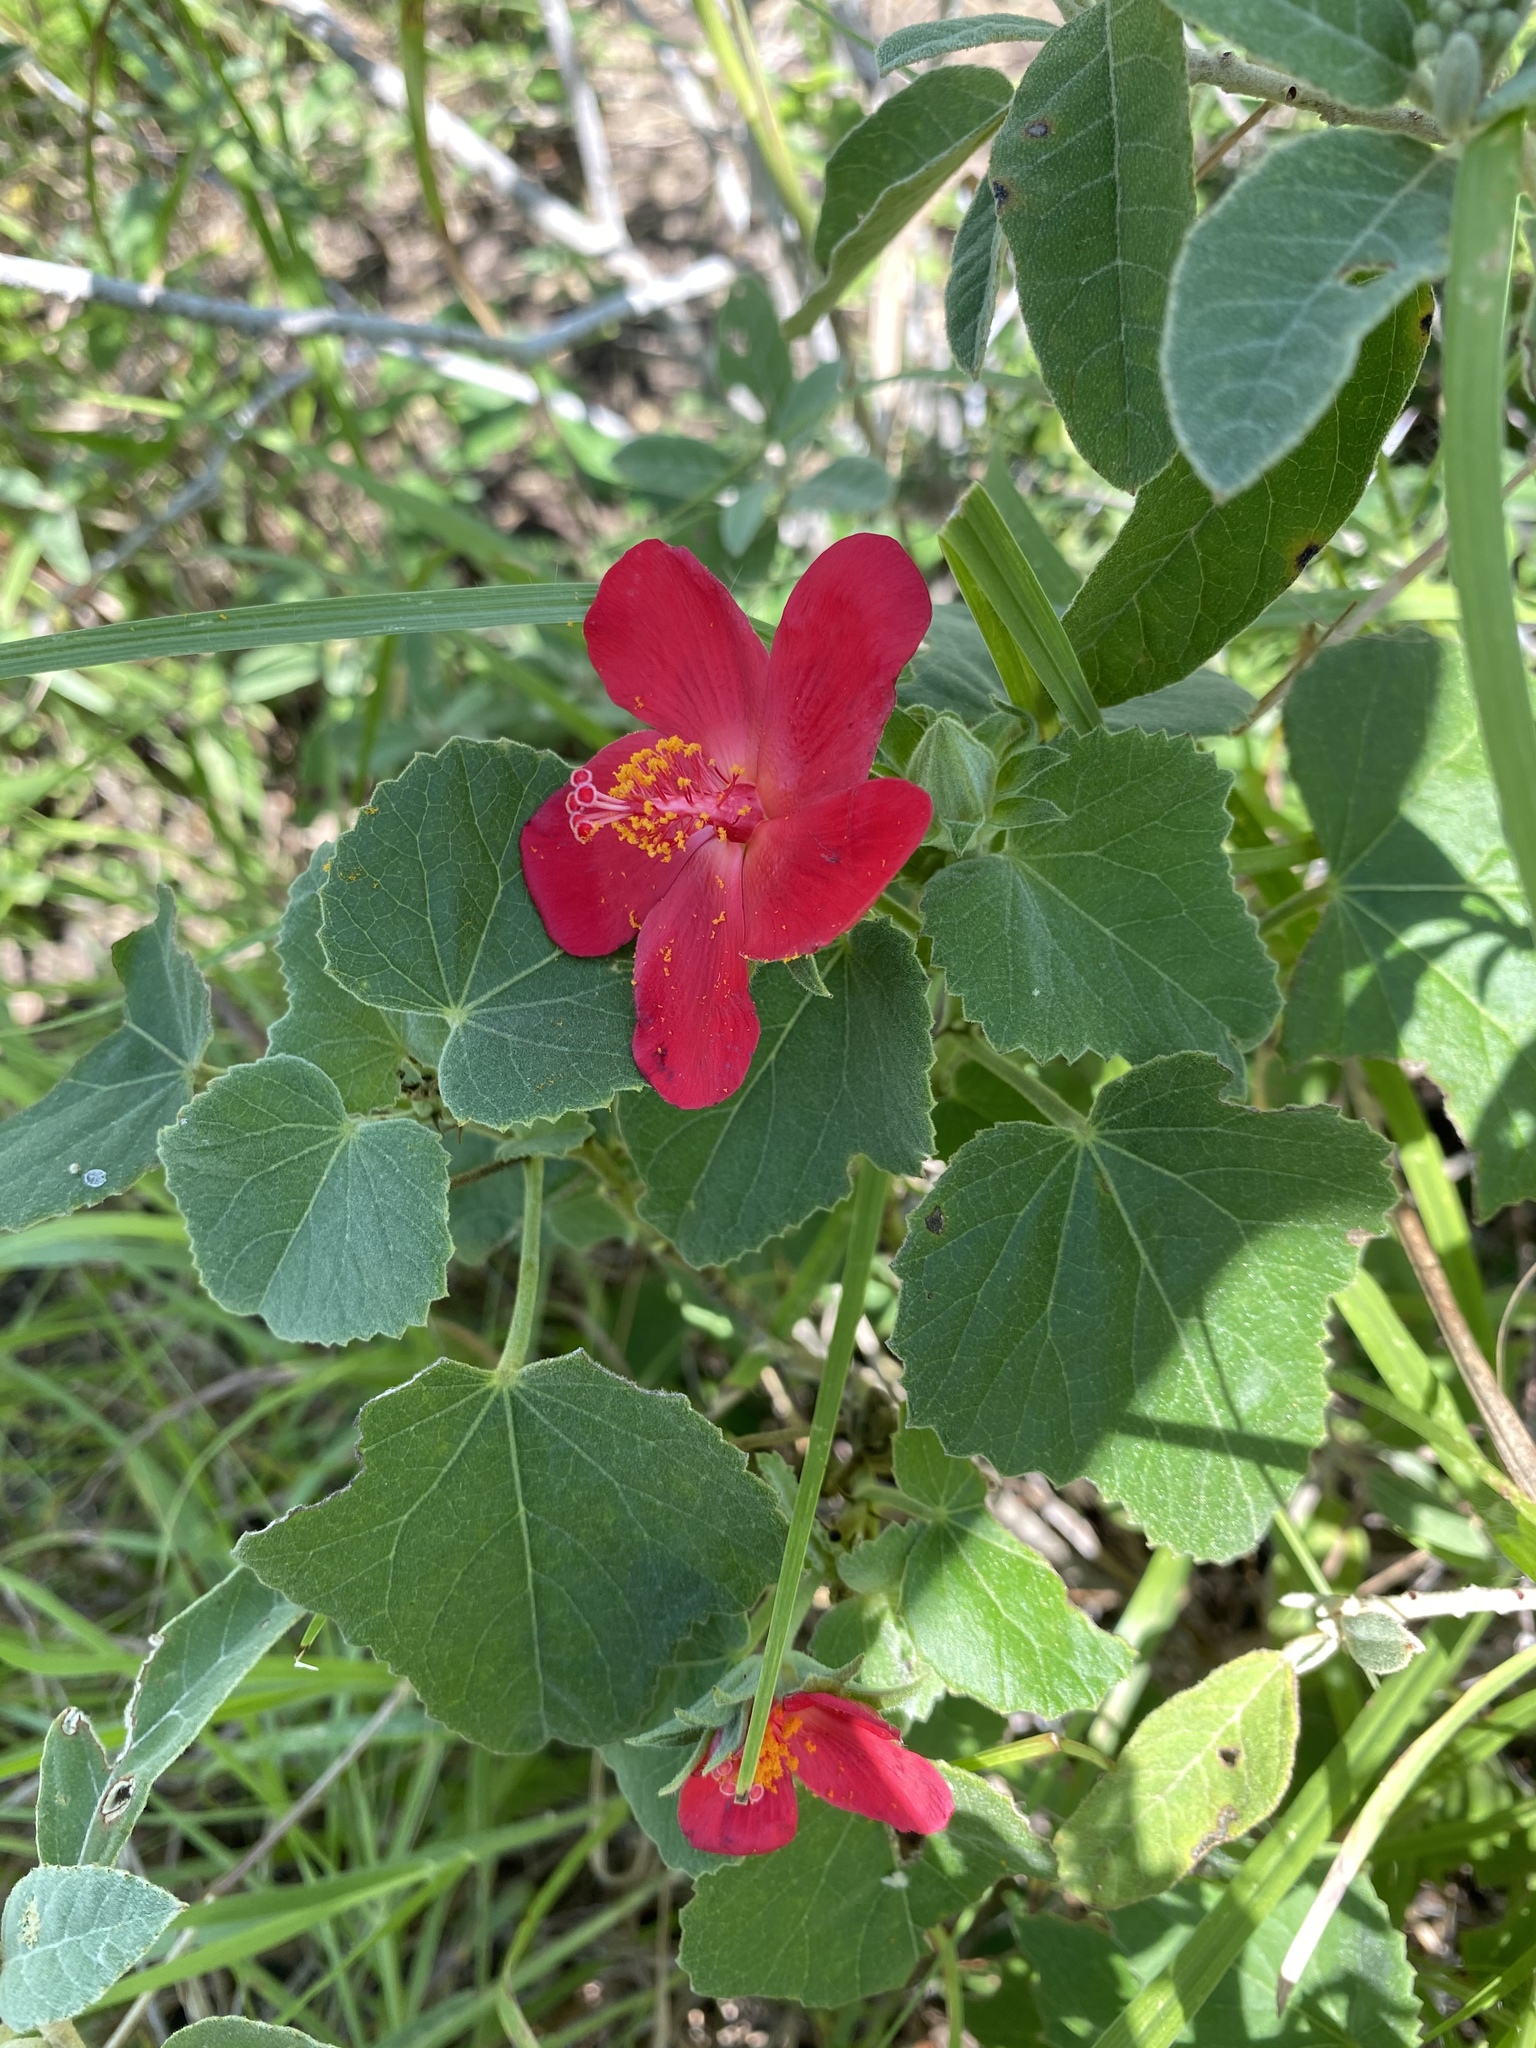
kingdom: Plantae
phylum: Tracheophyta
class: Magnoliopsida
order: Malvales
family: Malvaceae
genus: Hibiscus
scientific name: Hibiscus martianus
